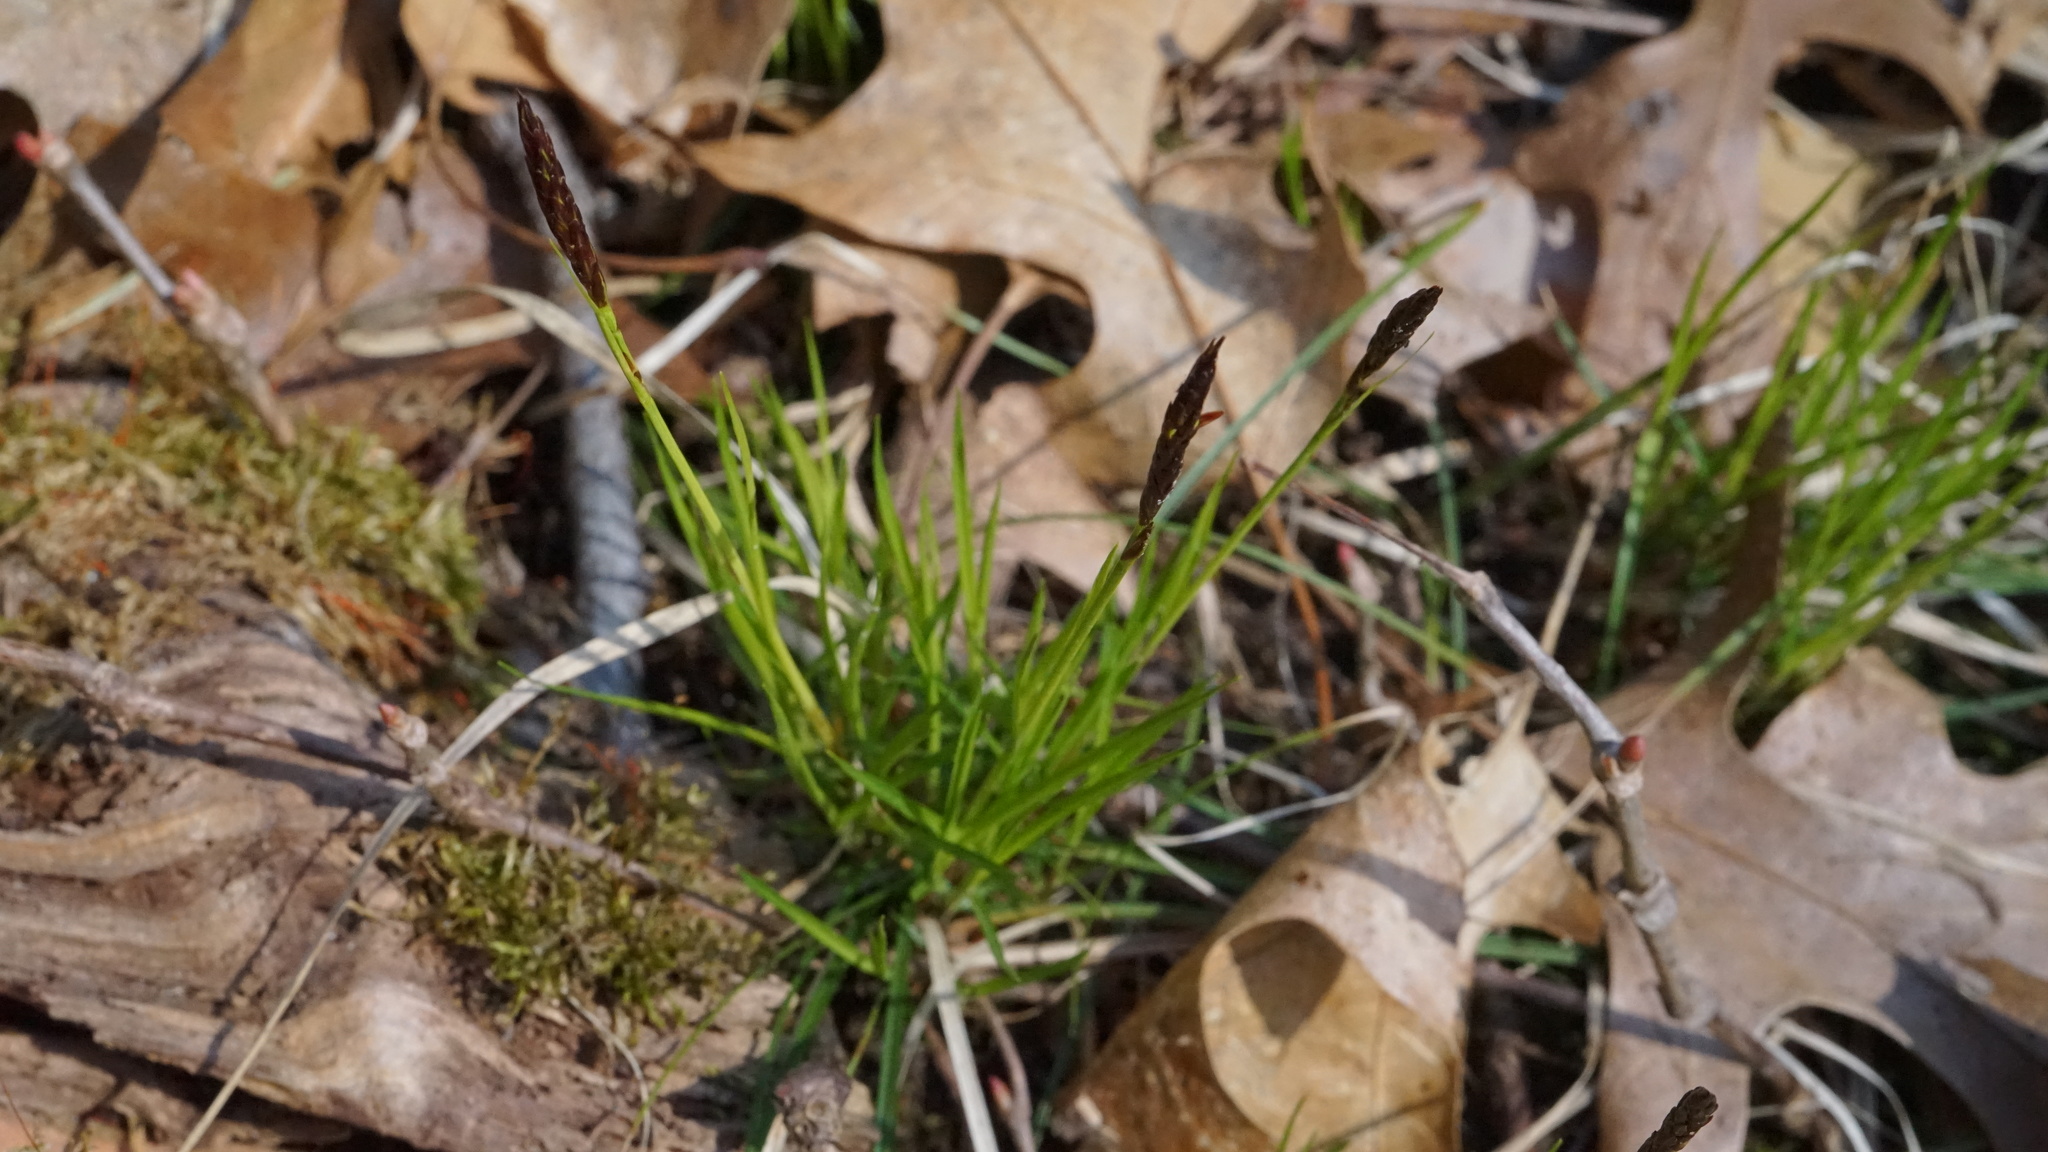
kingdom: Plantae
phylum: Tracheophyta
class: Liliopsida
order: Poales
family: Cyperaceae
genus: Carex
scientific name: Carex pensylvanica
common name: Common oak sedge
